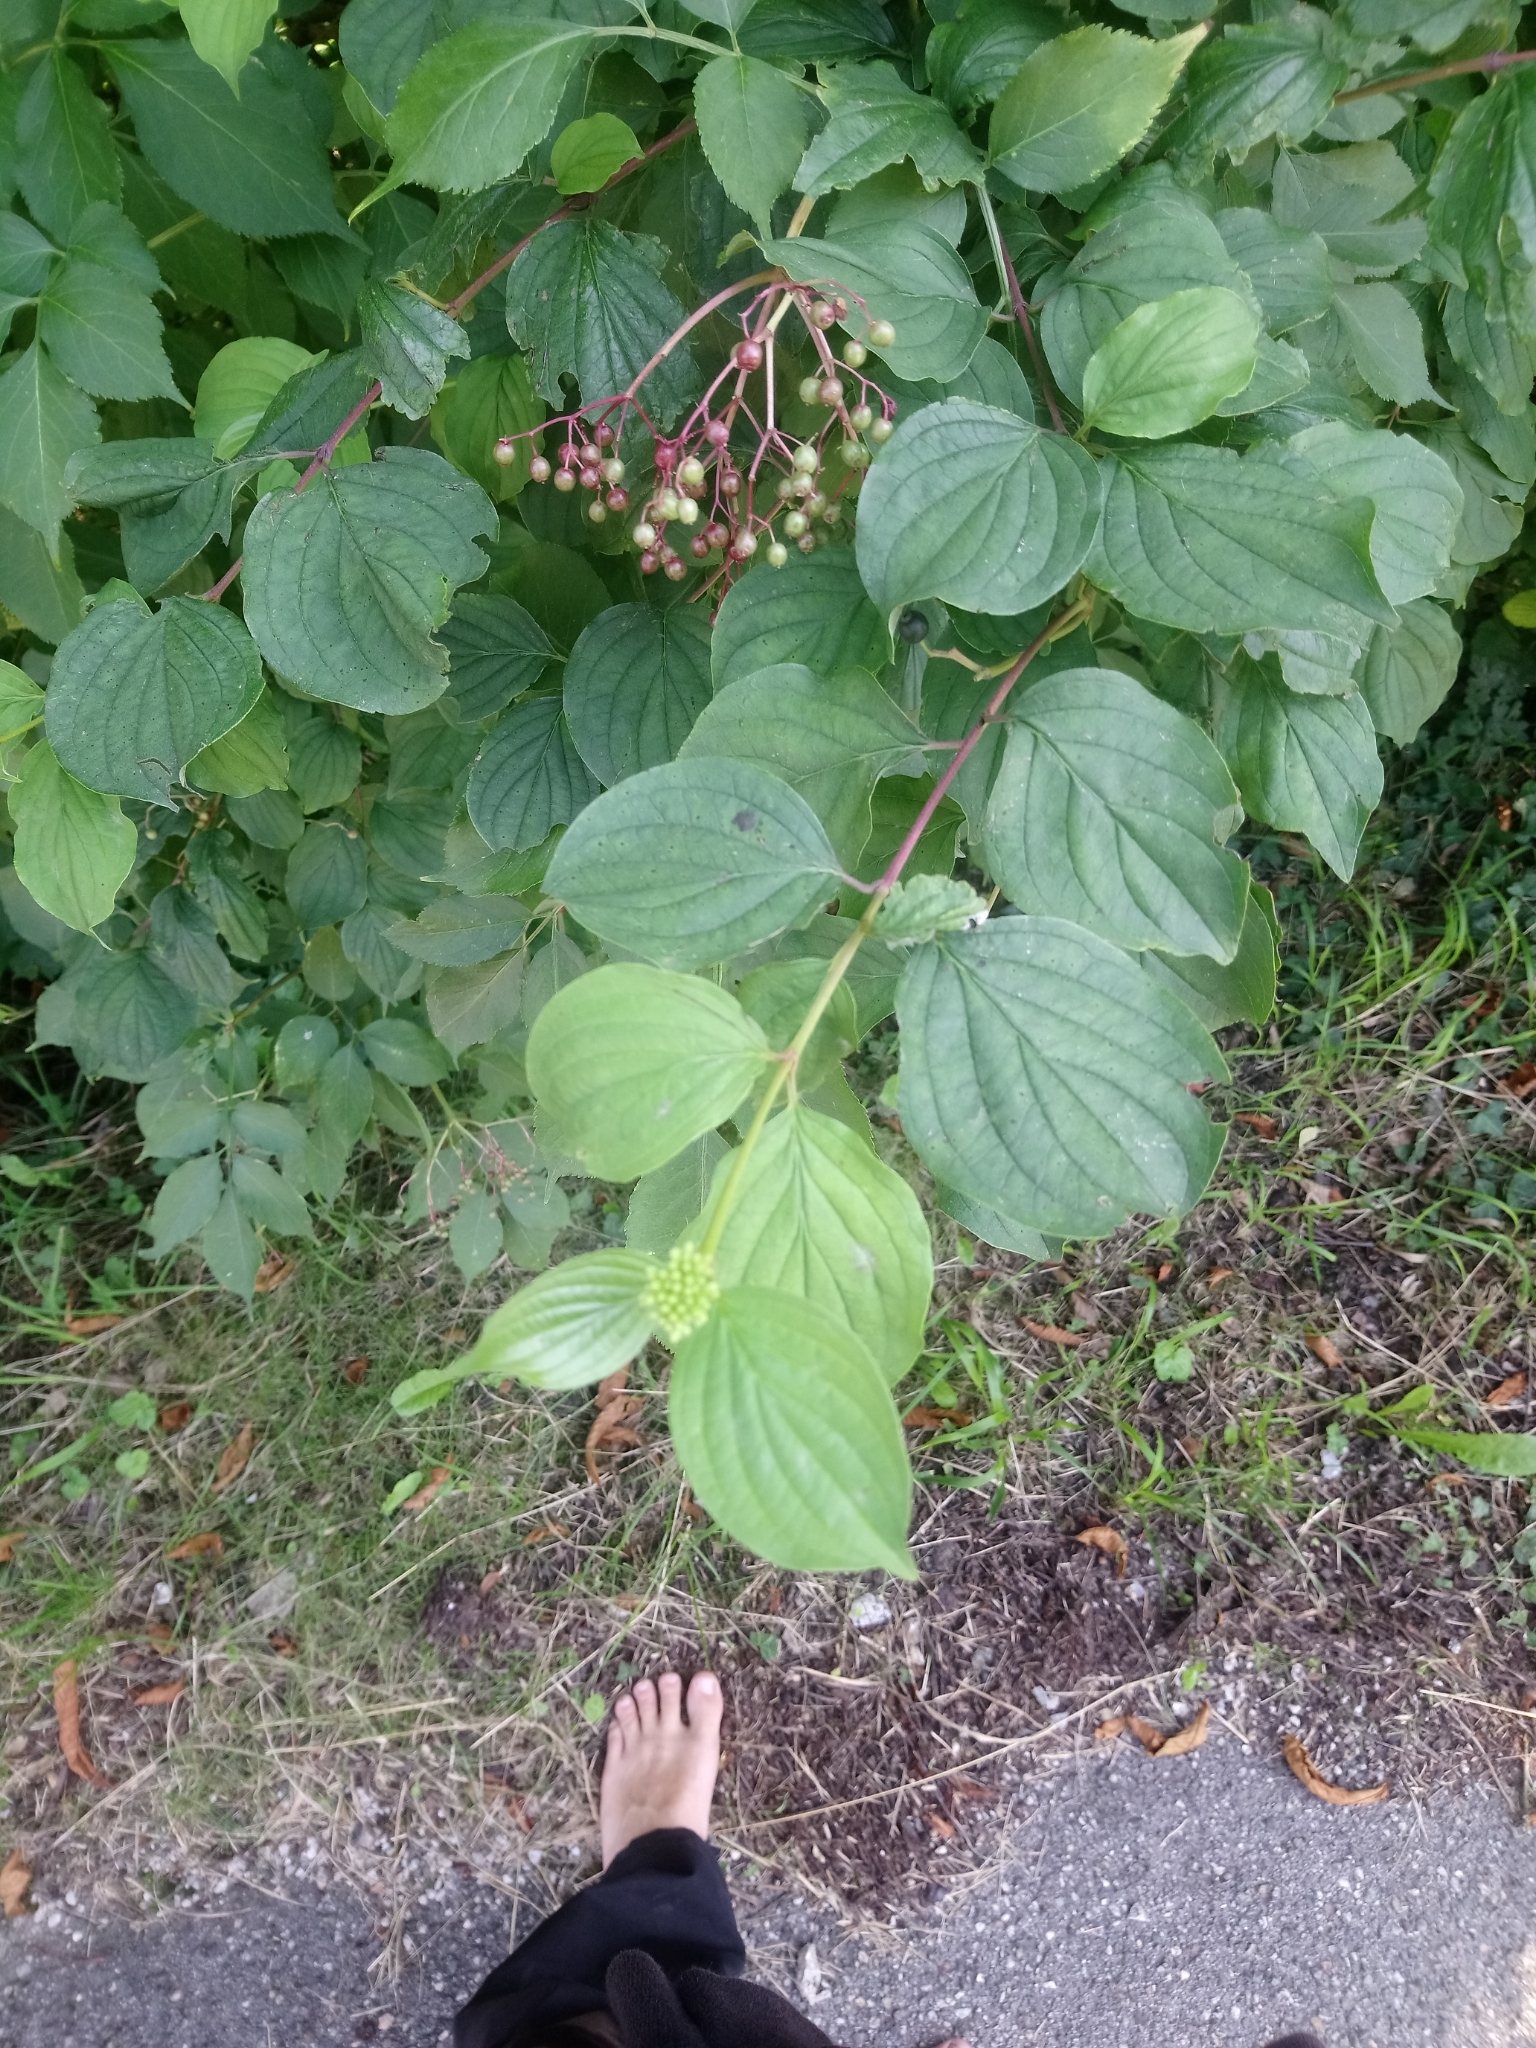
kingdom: Plantae
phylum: Tracheophyta
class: Magnoliopsida
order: Cornales
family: Cornaceae
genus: Cornus
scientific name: Cornus sanguinea
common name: Dogwood
